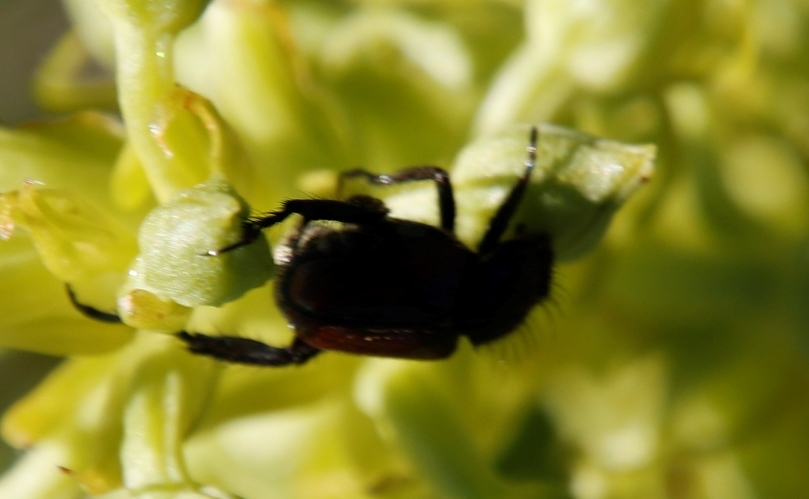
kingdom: Plantae
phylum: Tracheophyta
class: Liliopsida
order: Asparagales
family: Orchidaceae
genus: Habenaria
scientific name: Habenaria lithophila
